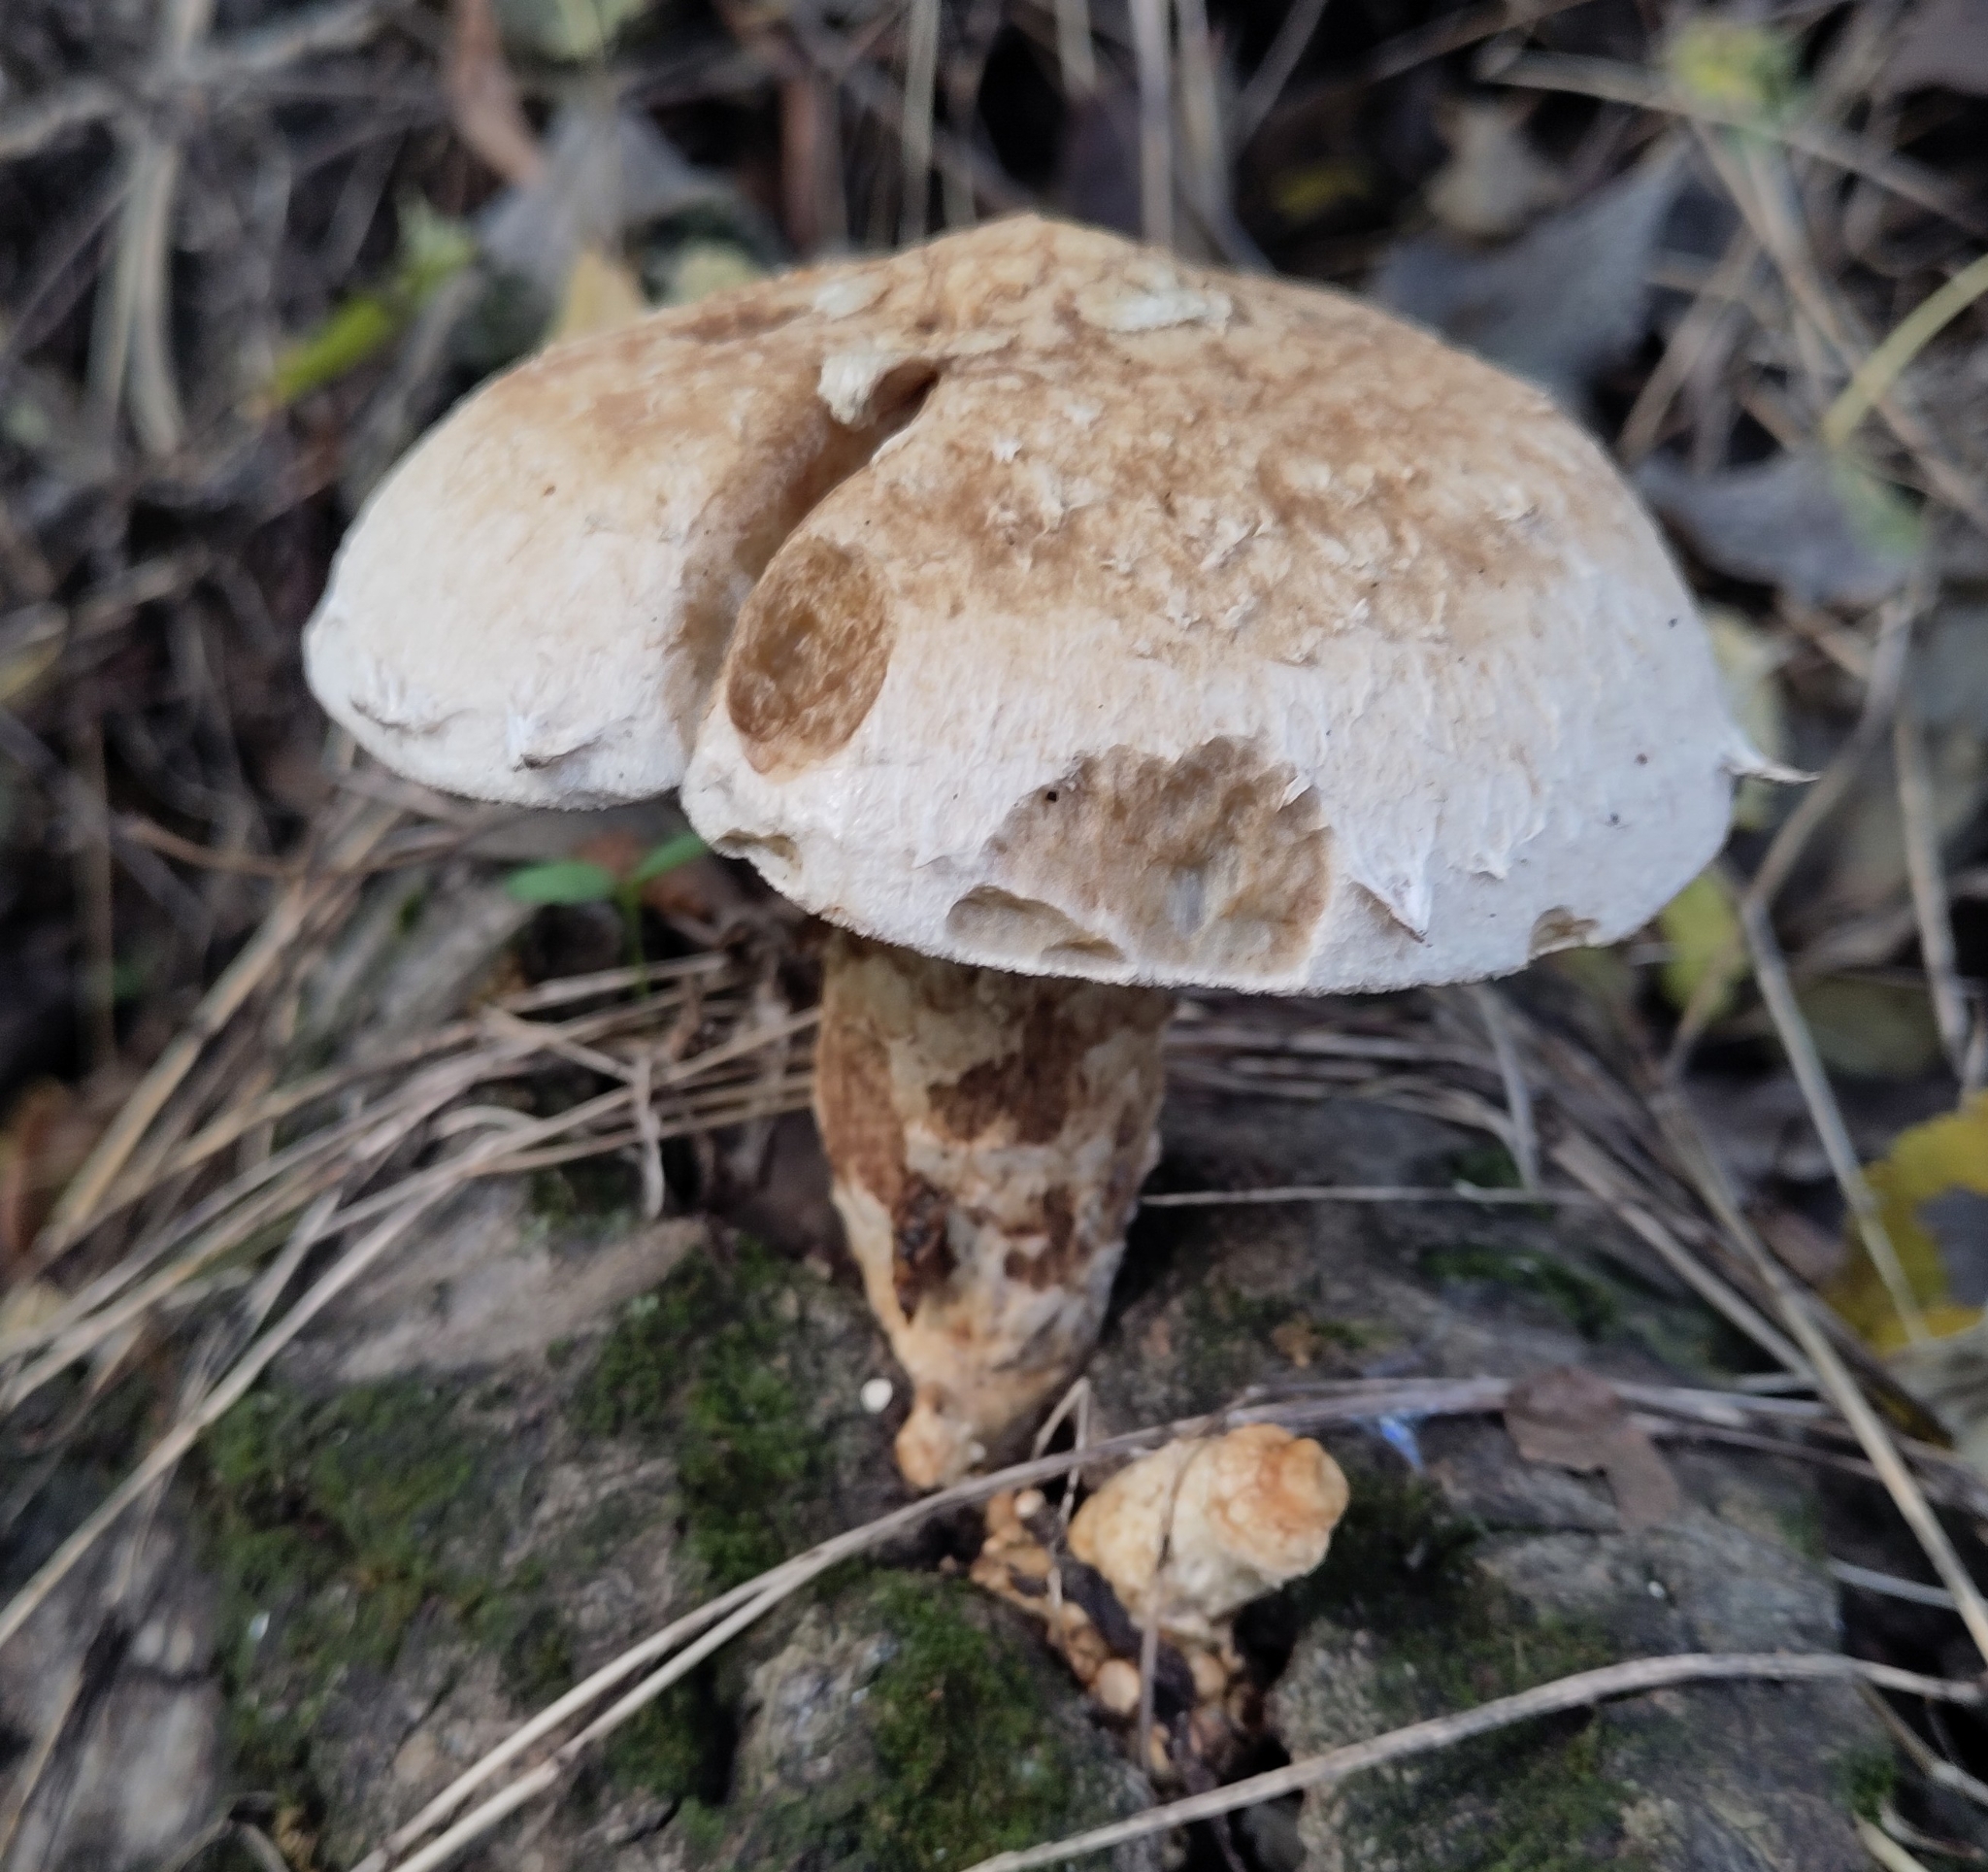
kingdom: Fungi
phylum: Basidiomycota
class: Agaricomycetes
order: Agaricales
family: Strophariaceae
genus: Pholiota
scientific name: Pholiota populnea
